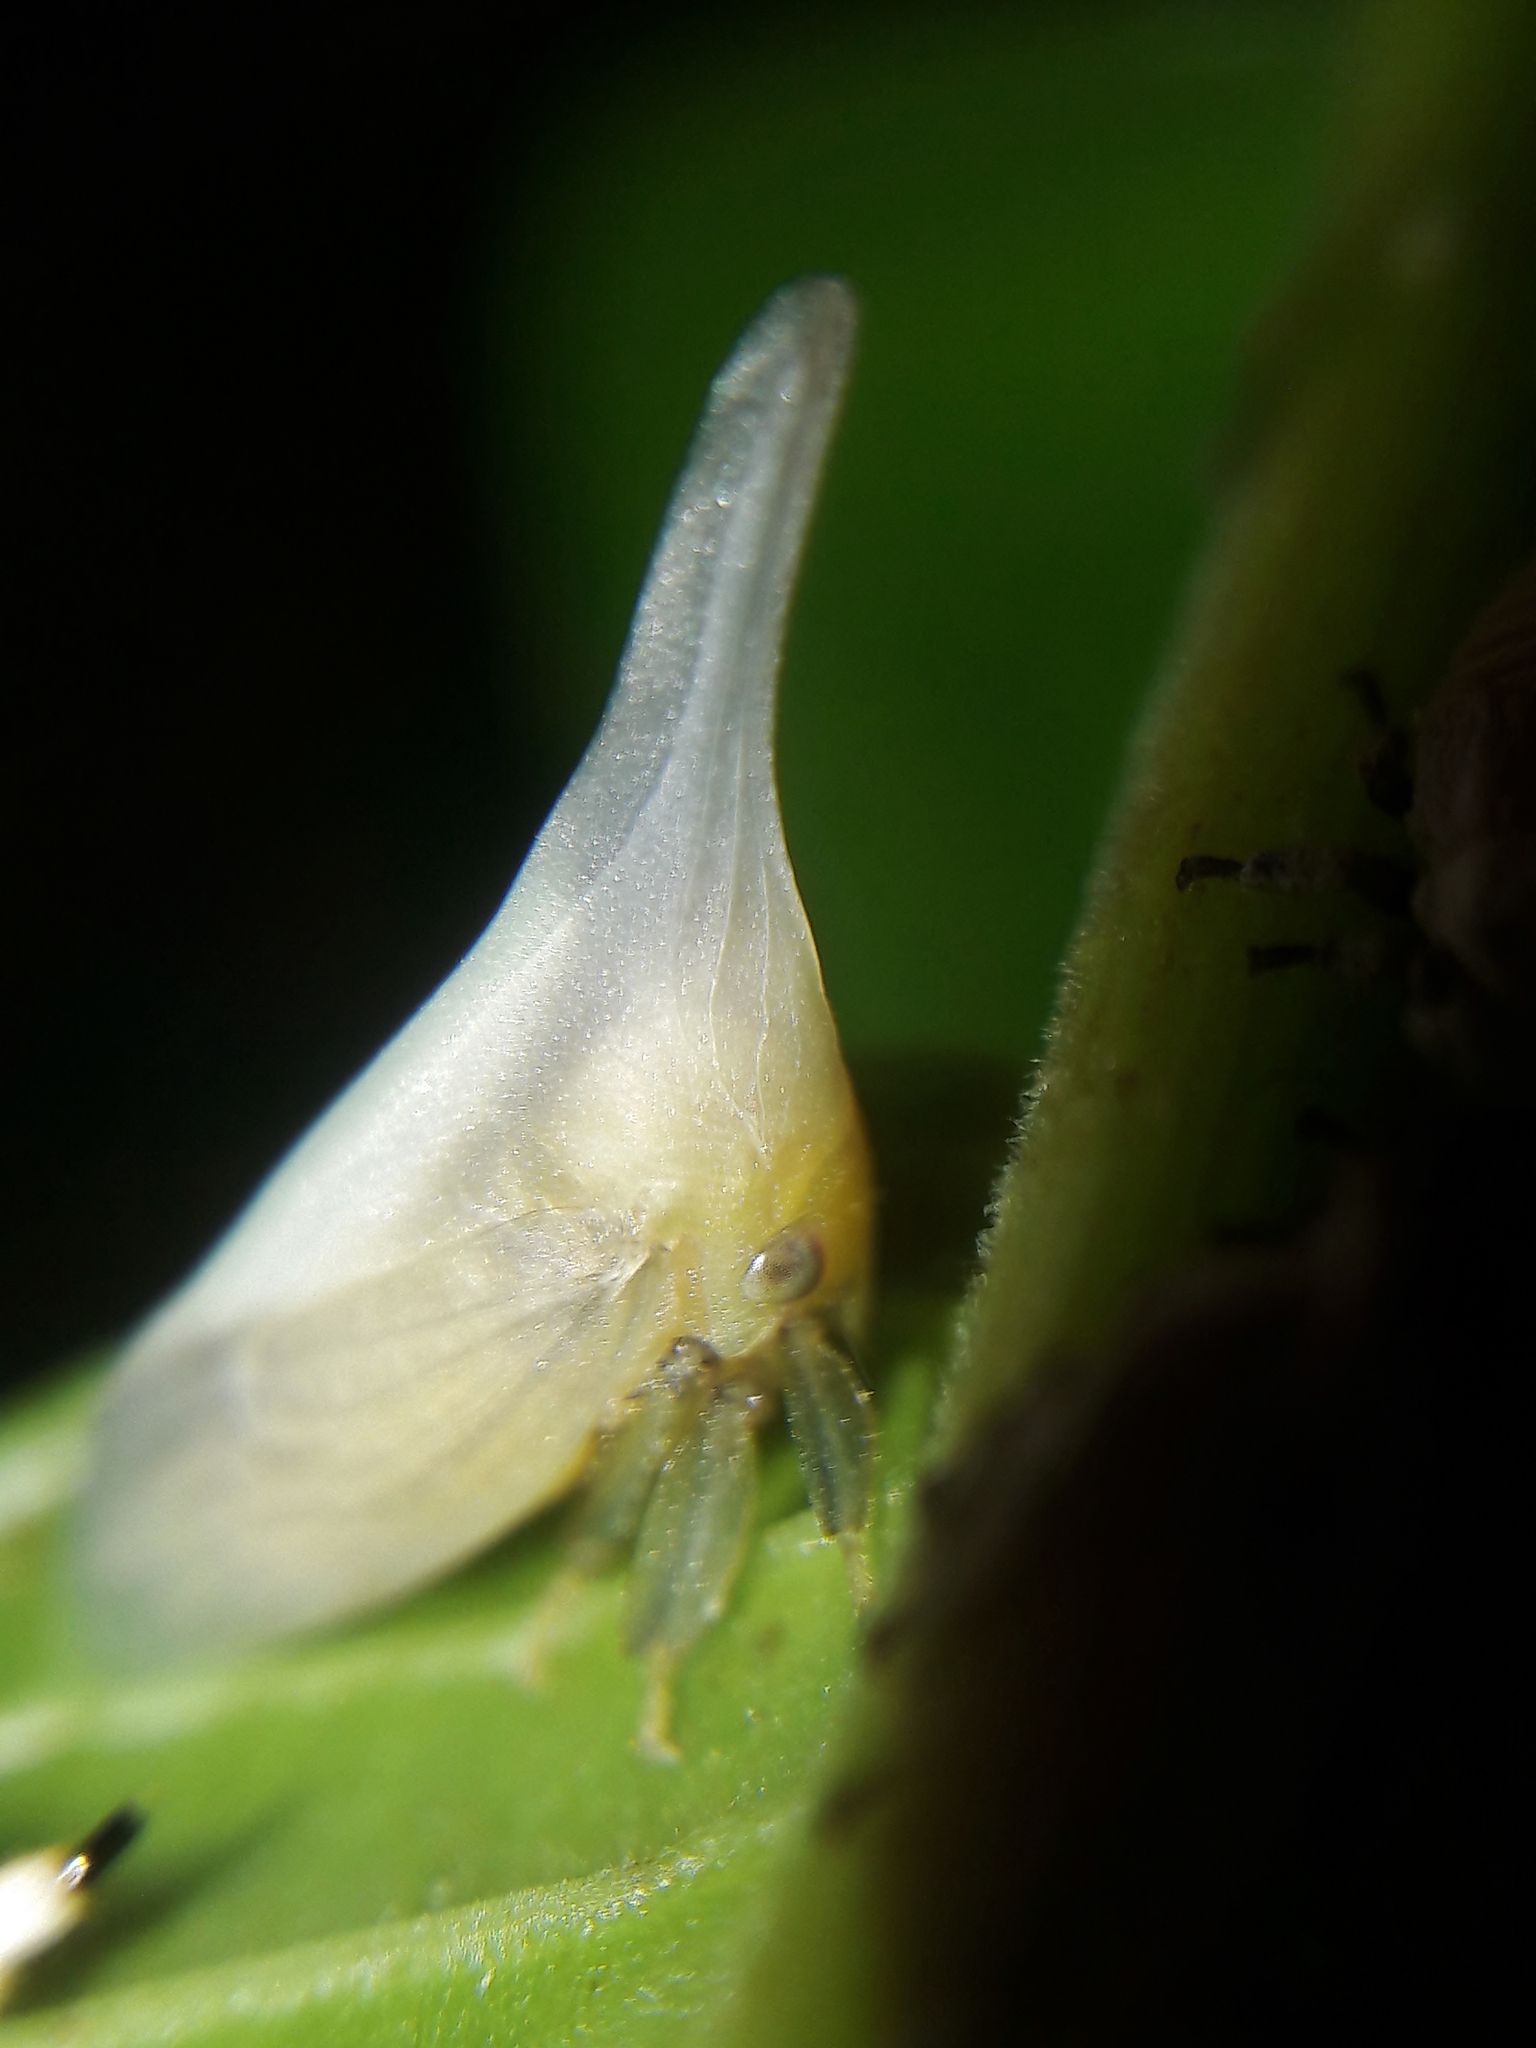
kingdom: Animalia
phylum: Arthropoda
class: Insecta
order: Hemiptera
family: Membracidae
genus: Enchenopa
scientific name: Enchenopa albidorsa
